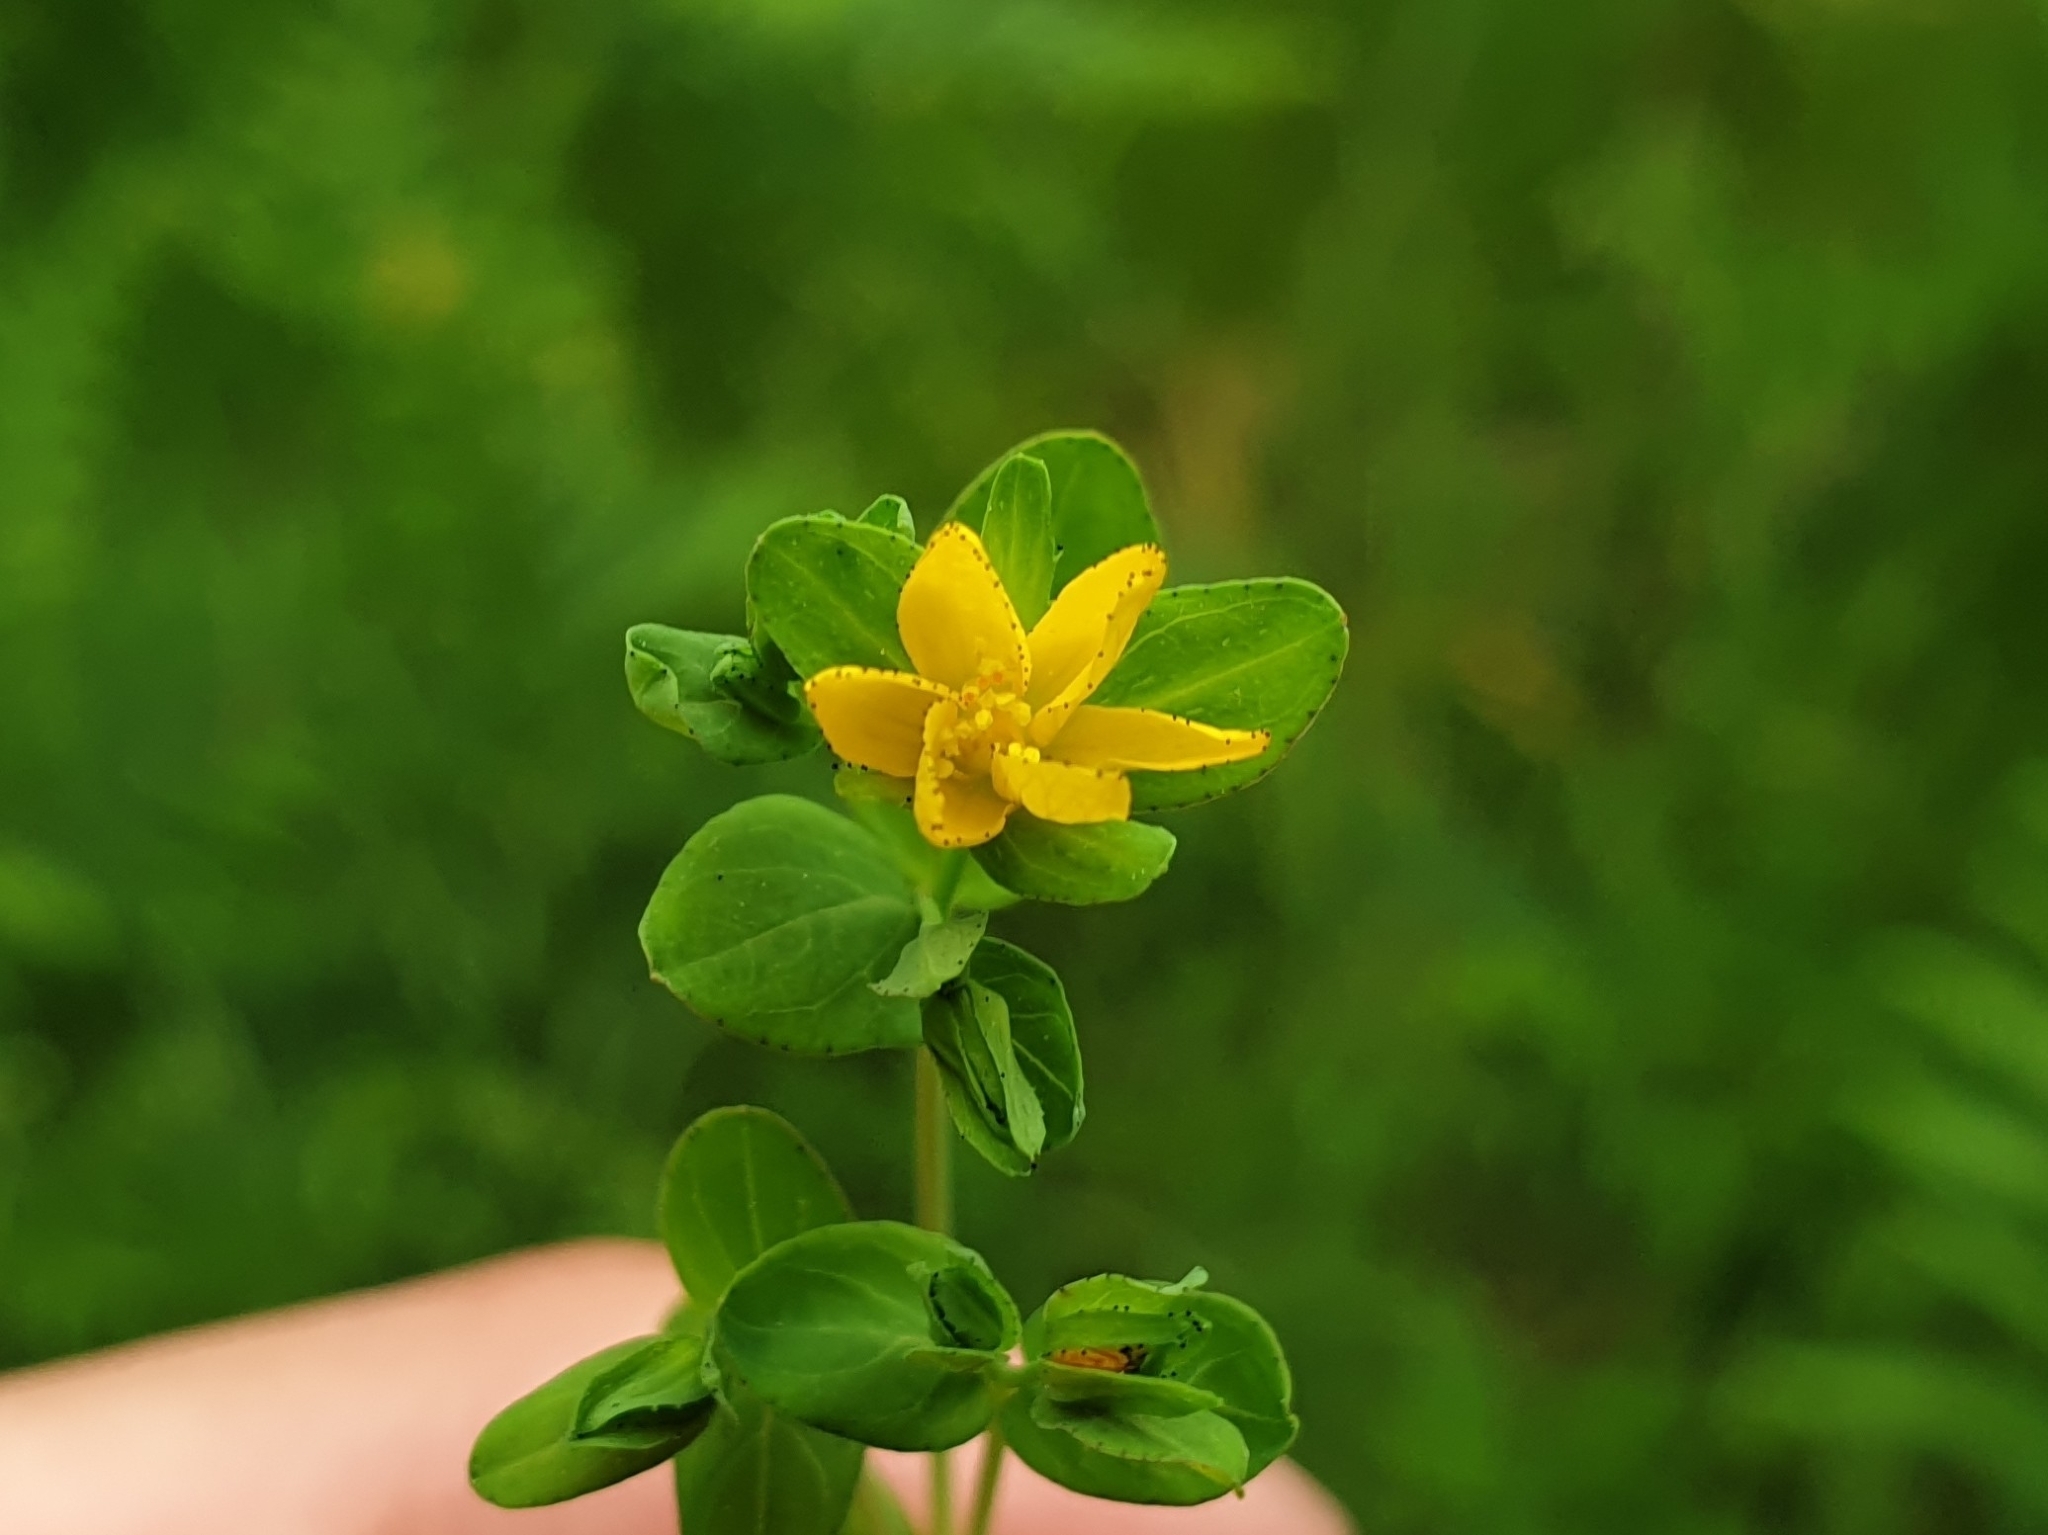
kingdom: Plantae
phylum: Tracheophyta
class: Magnoliopsida
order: Malpighiales
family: Hypericaceae
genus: Hypericum
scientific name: Hypericum humifusum
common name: Trailing st. john's-wort
